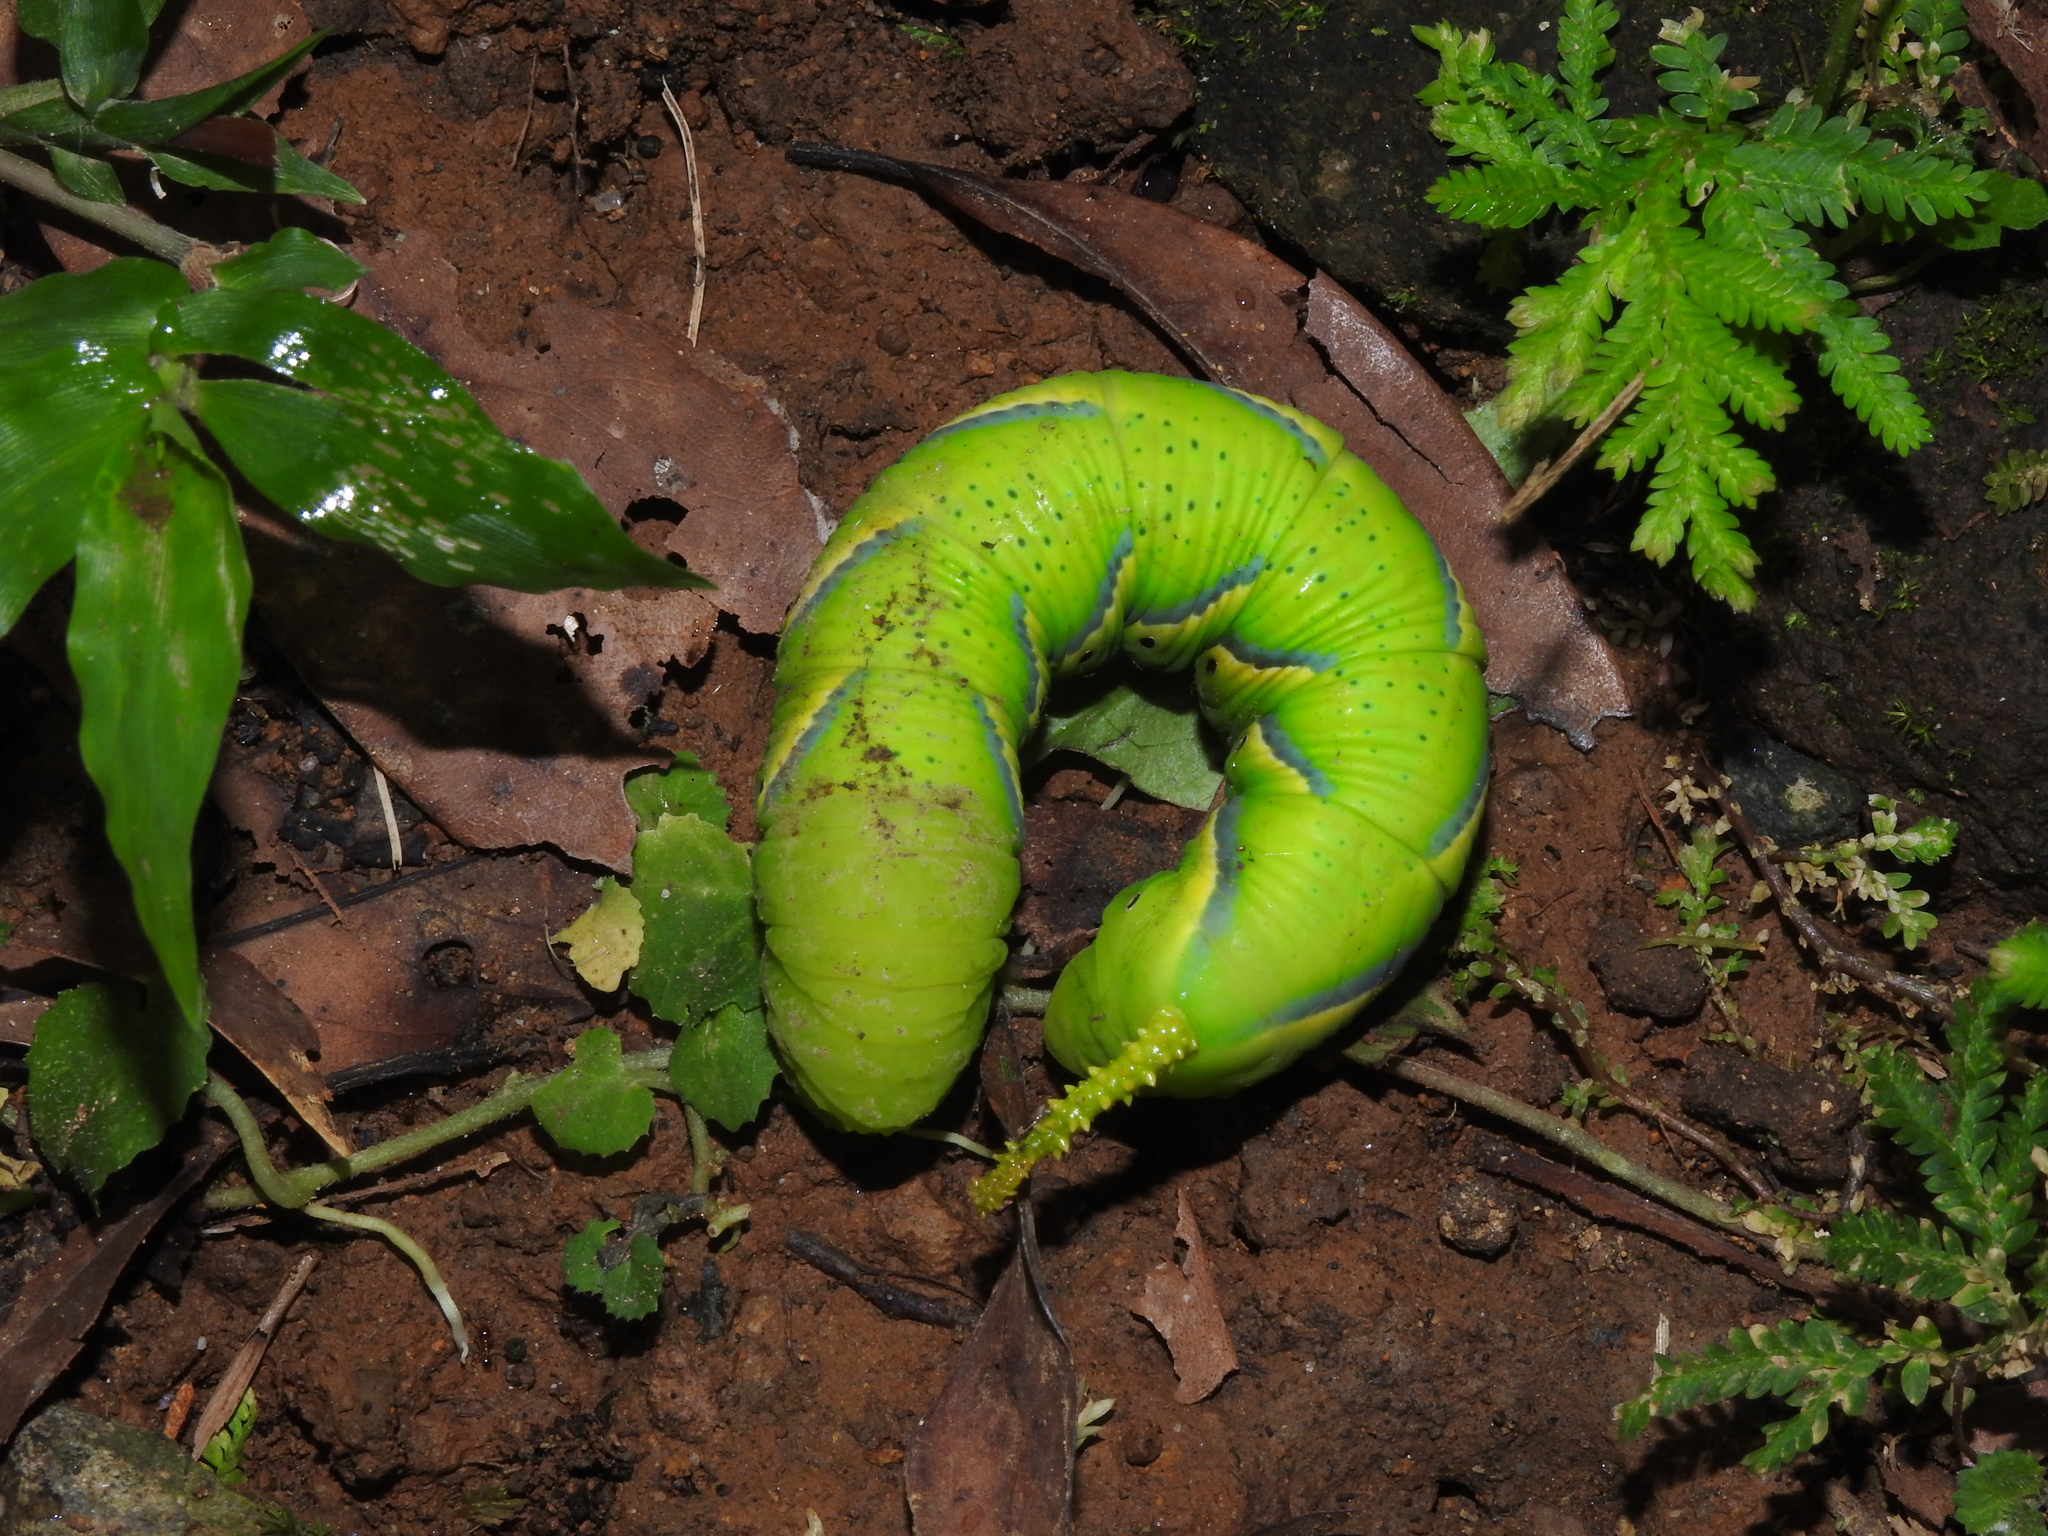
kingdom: Animalia
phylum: Arthropoda
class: Insecta
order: Lepidoptera
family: Sphingidae
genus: Acherontia
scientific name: Acherontia lachesis
